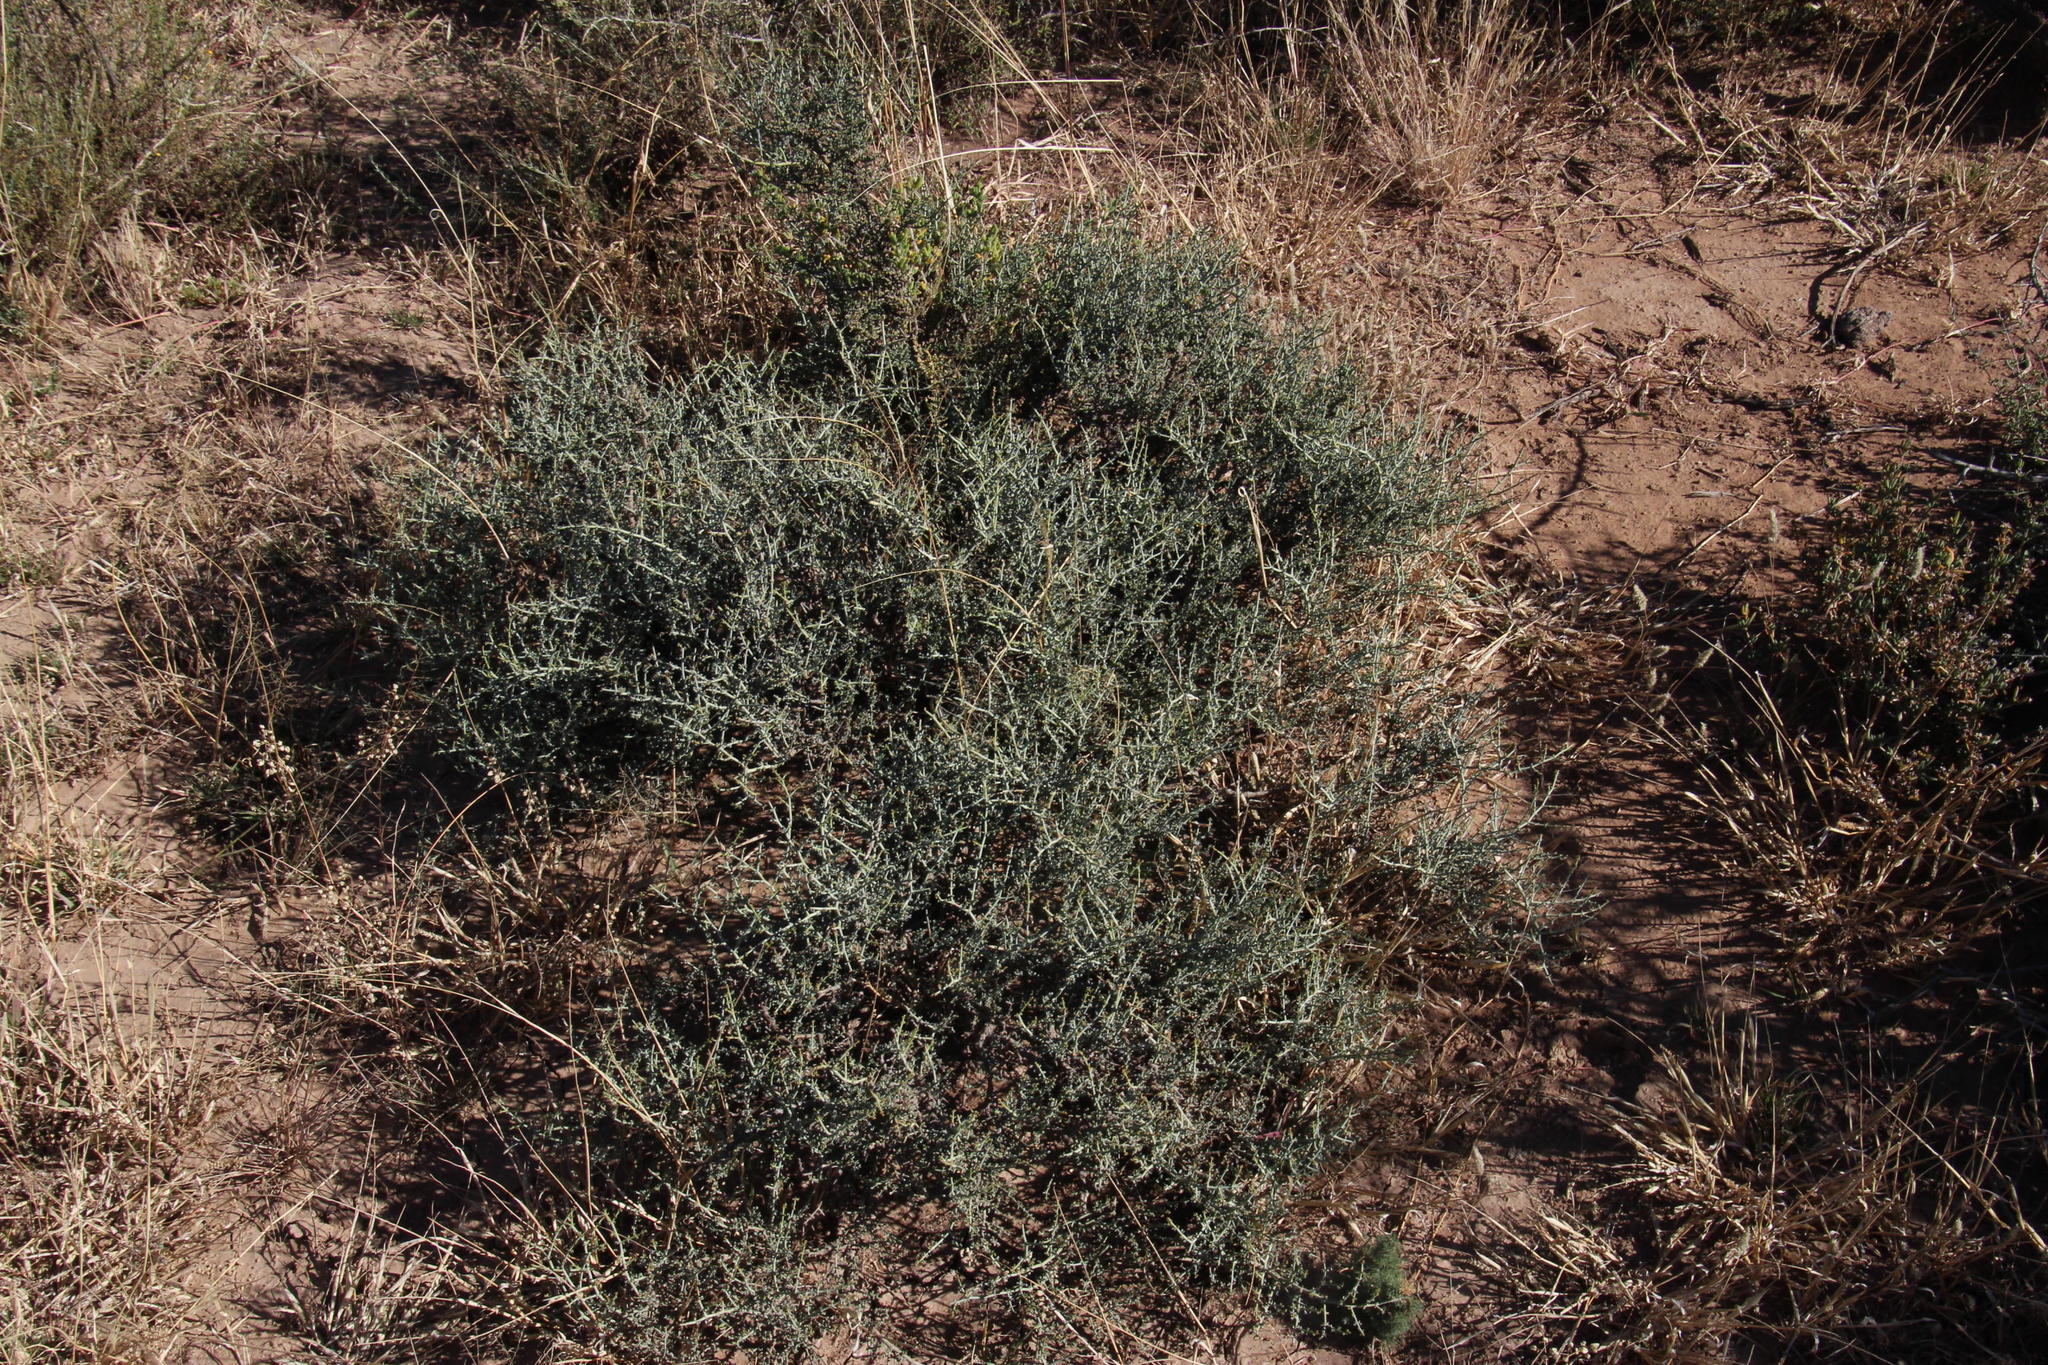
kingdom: Plantae
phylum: Tracheophyta
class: Magnoliopsida
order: Zygophyllales
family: Zygophyllaceae
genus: Tetraena
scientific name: Tetraena chrysopteros
